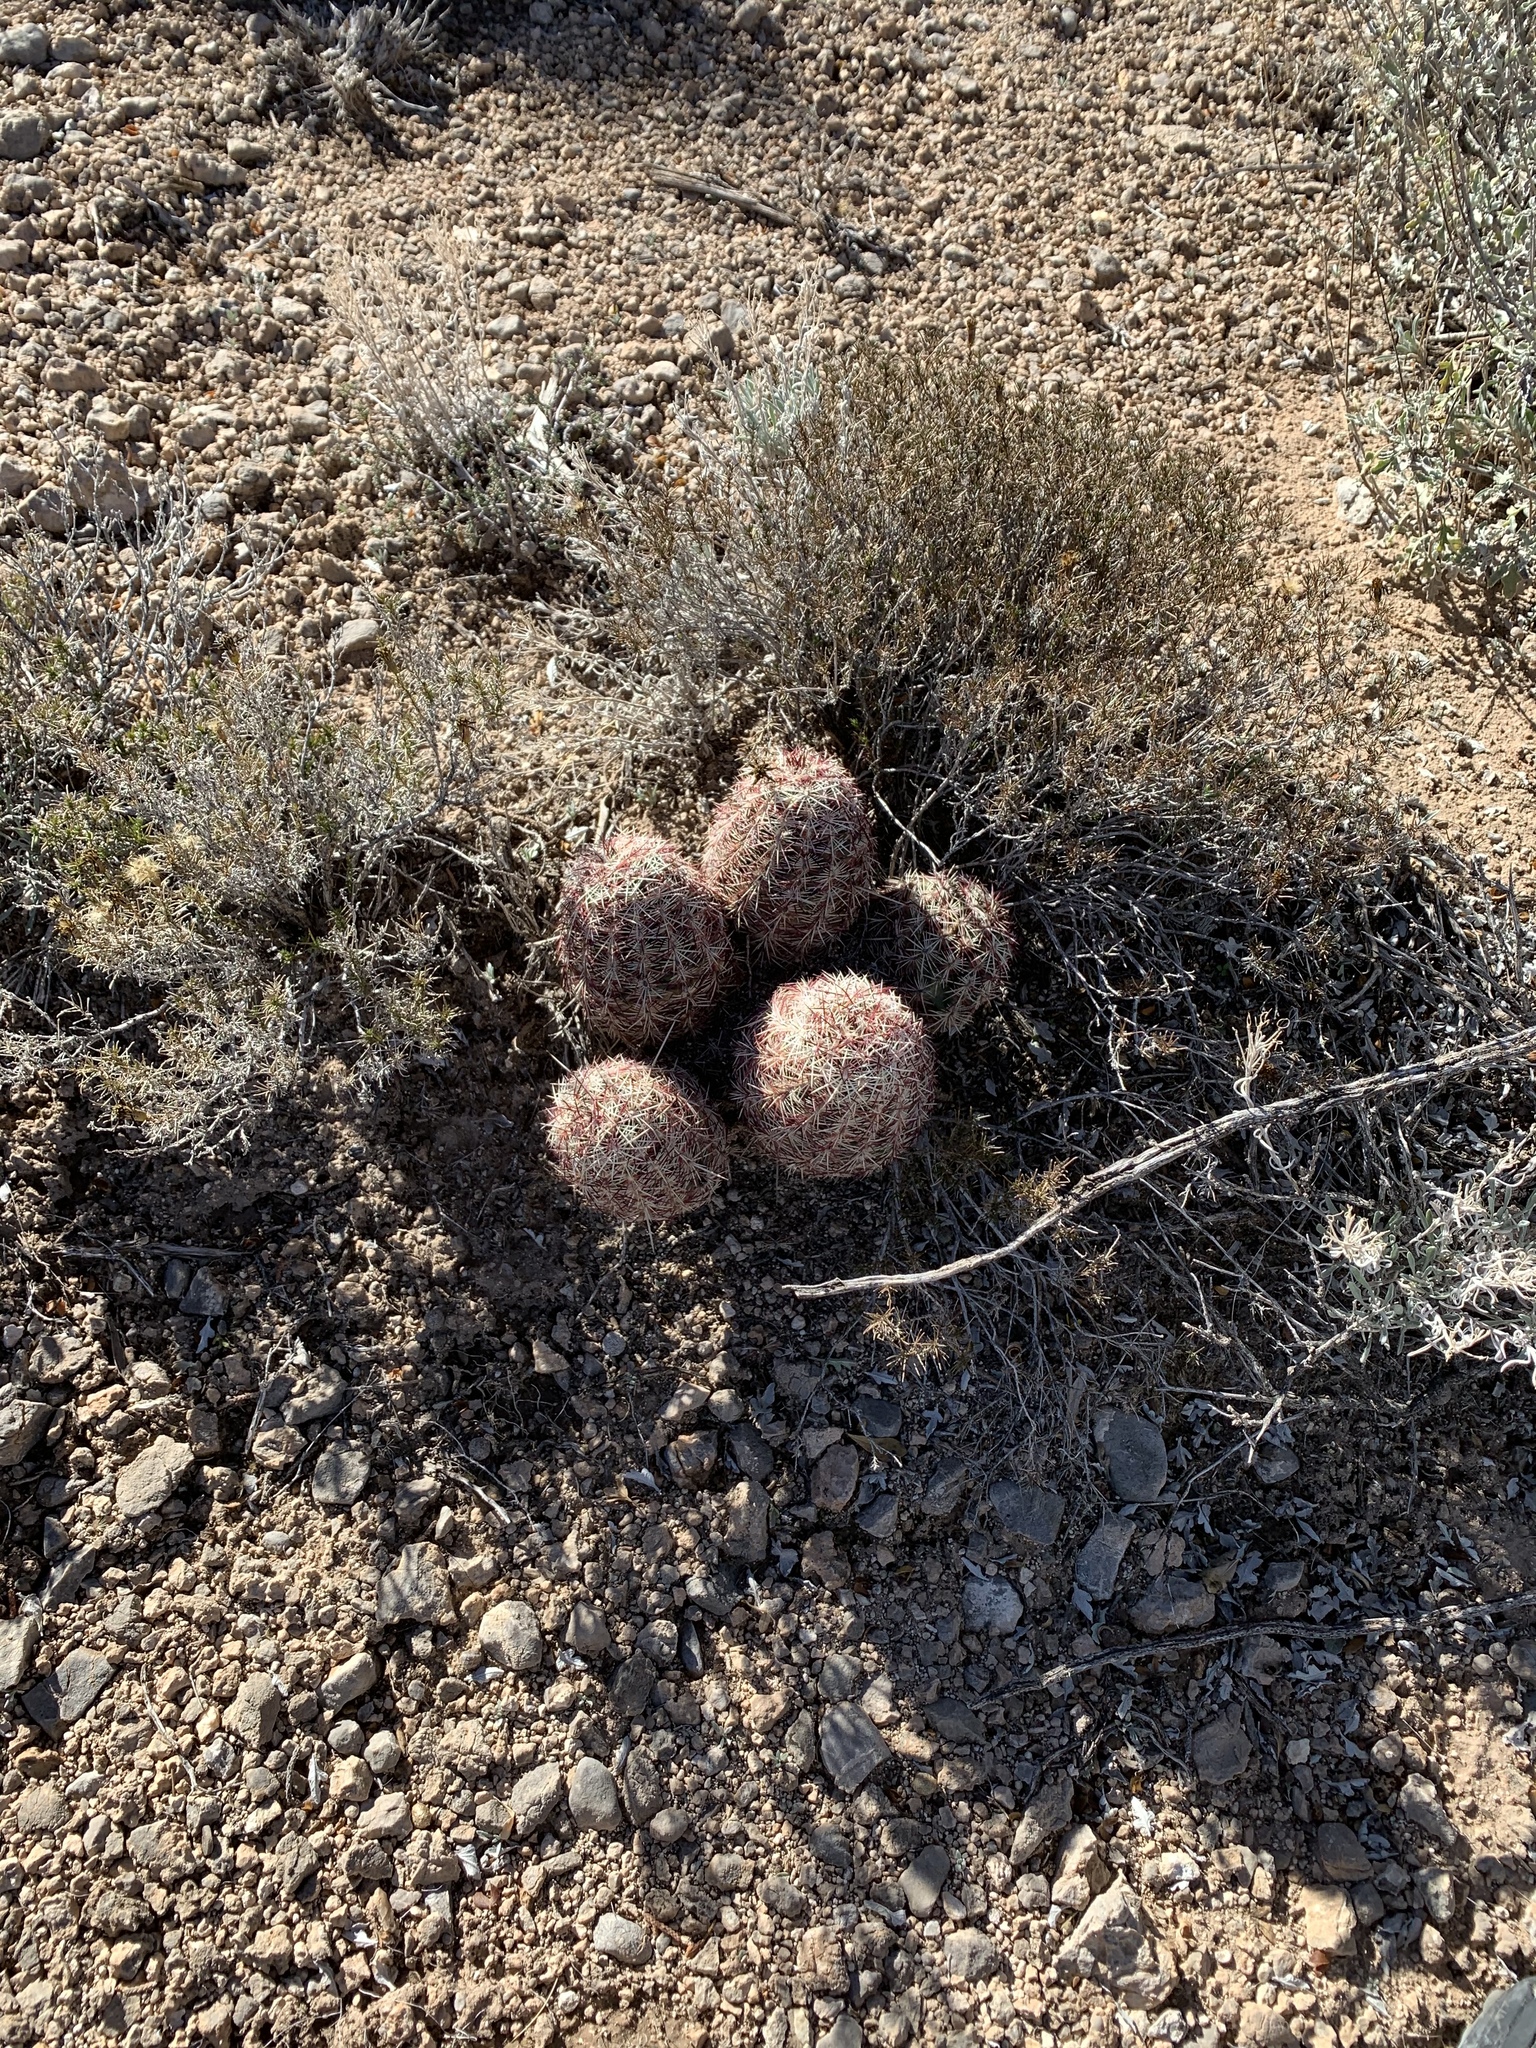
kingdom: Plantae
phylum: Tracheophyta
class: Magnoliopsida
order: Caryophyllales
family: Cactaceae
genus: Echinocereus
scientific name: Echinocereus viridiflorus
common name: Nylon hedgehog cactus
